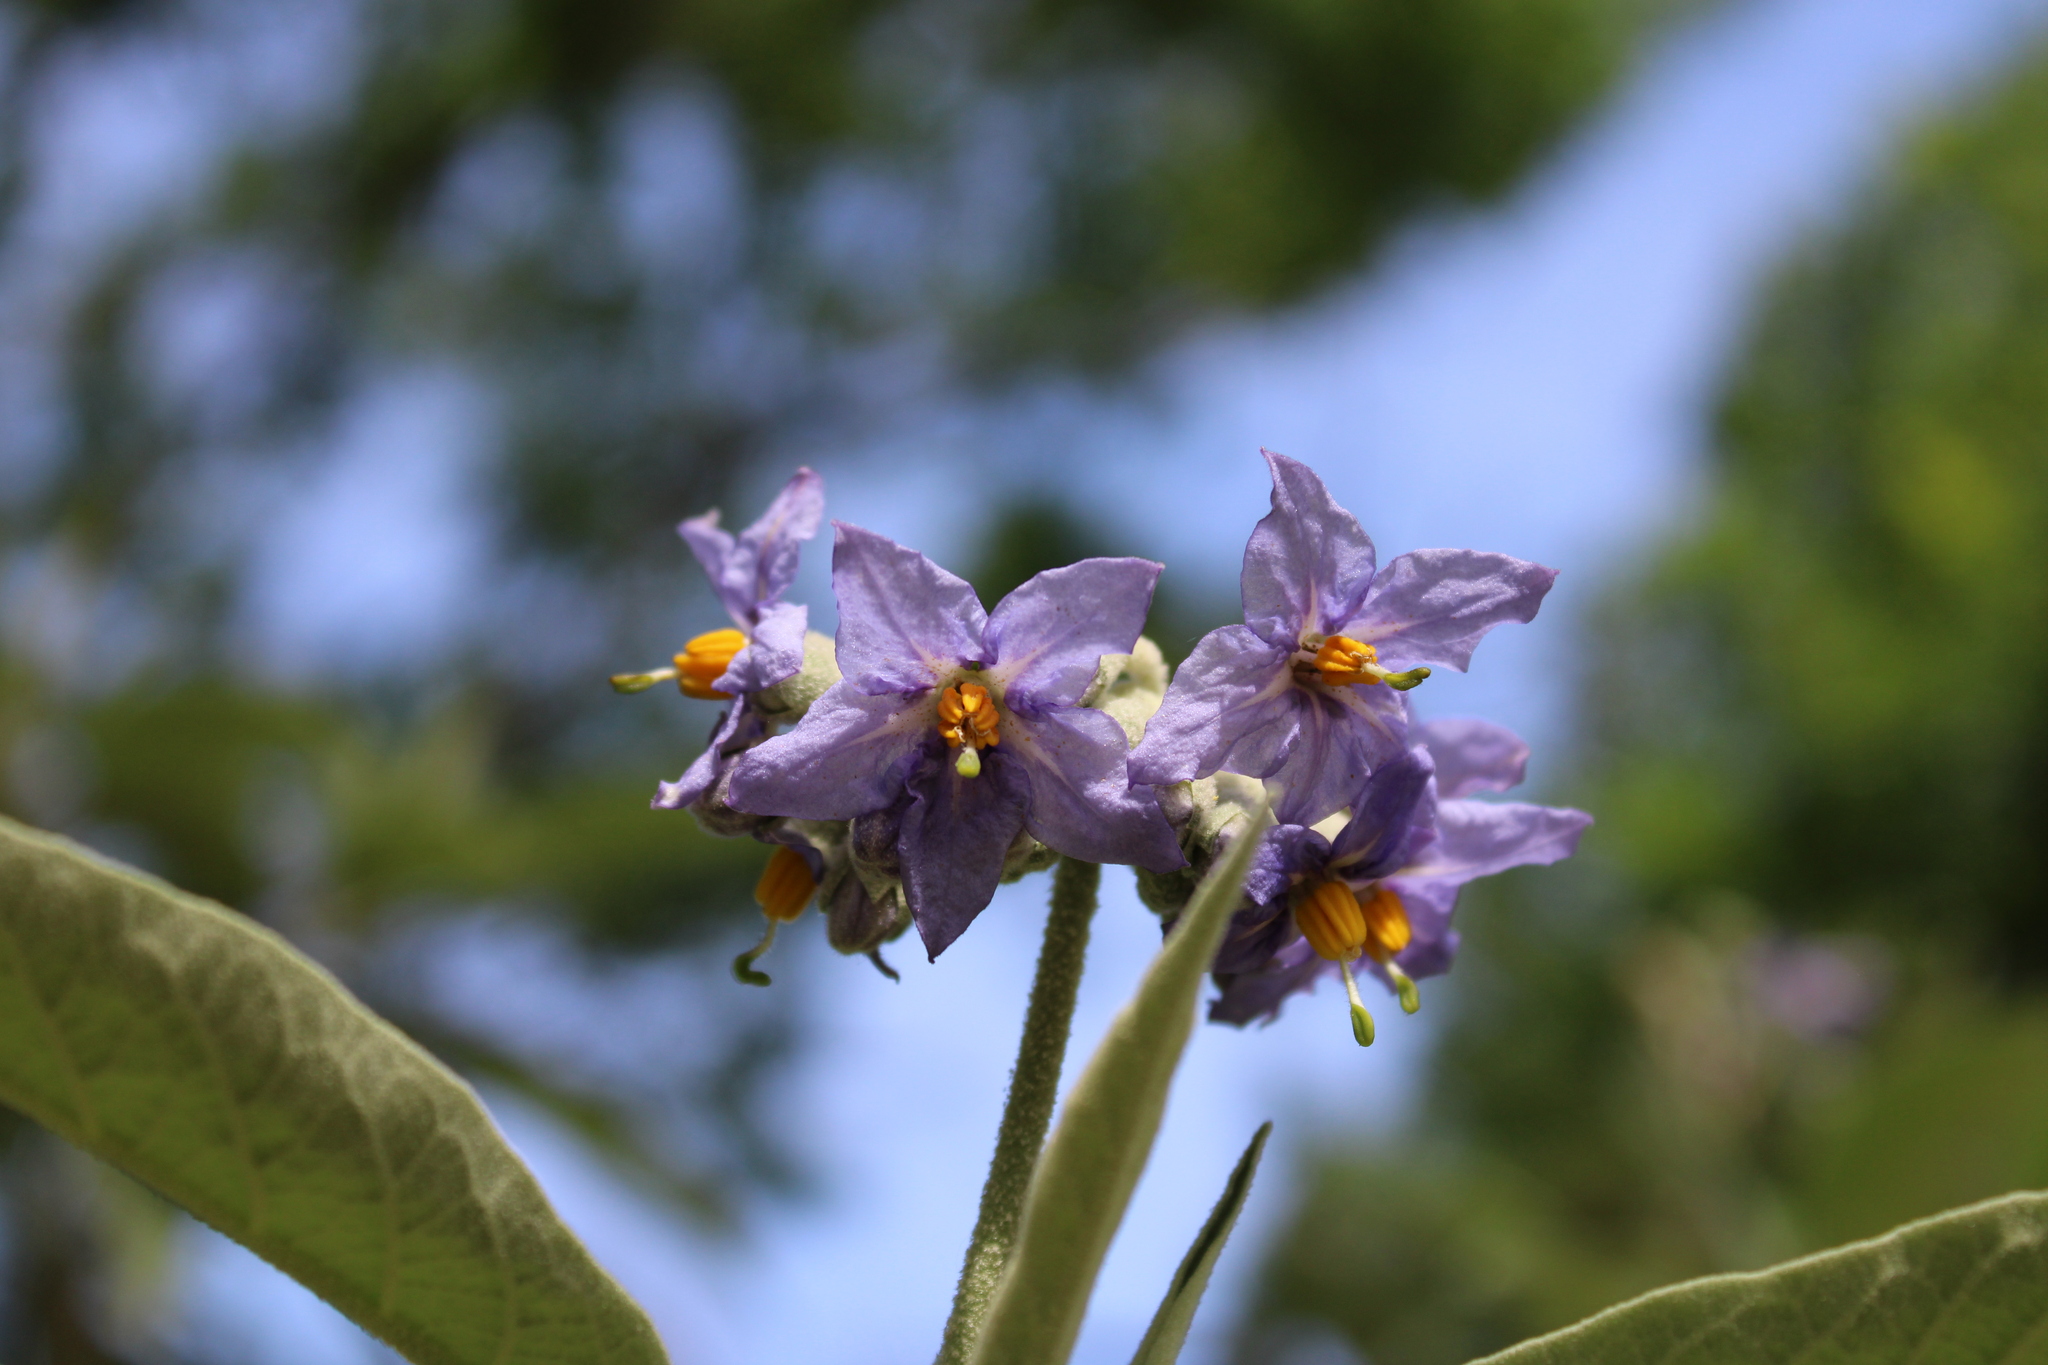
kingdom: Plantae
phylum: Tracheophyta
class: Magnoliopsida
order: Solanales
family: Solanaceae
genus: Solanum
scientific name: Solanum granulosoleprosum
